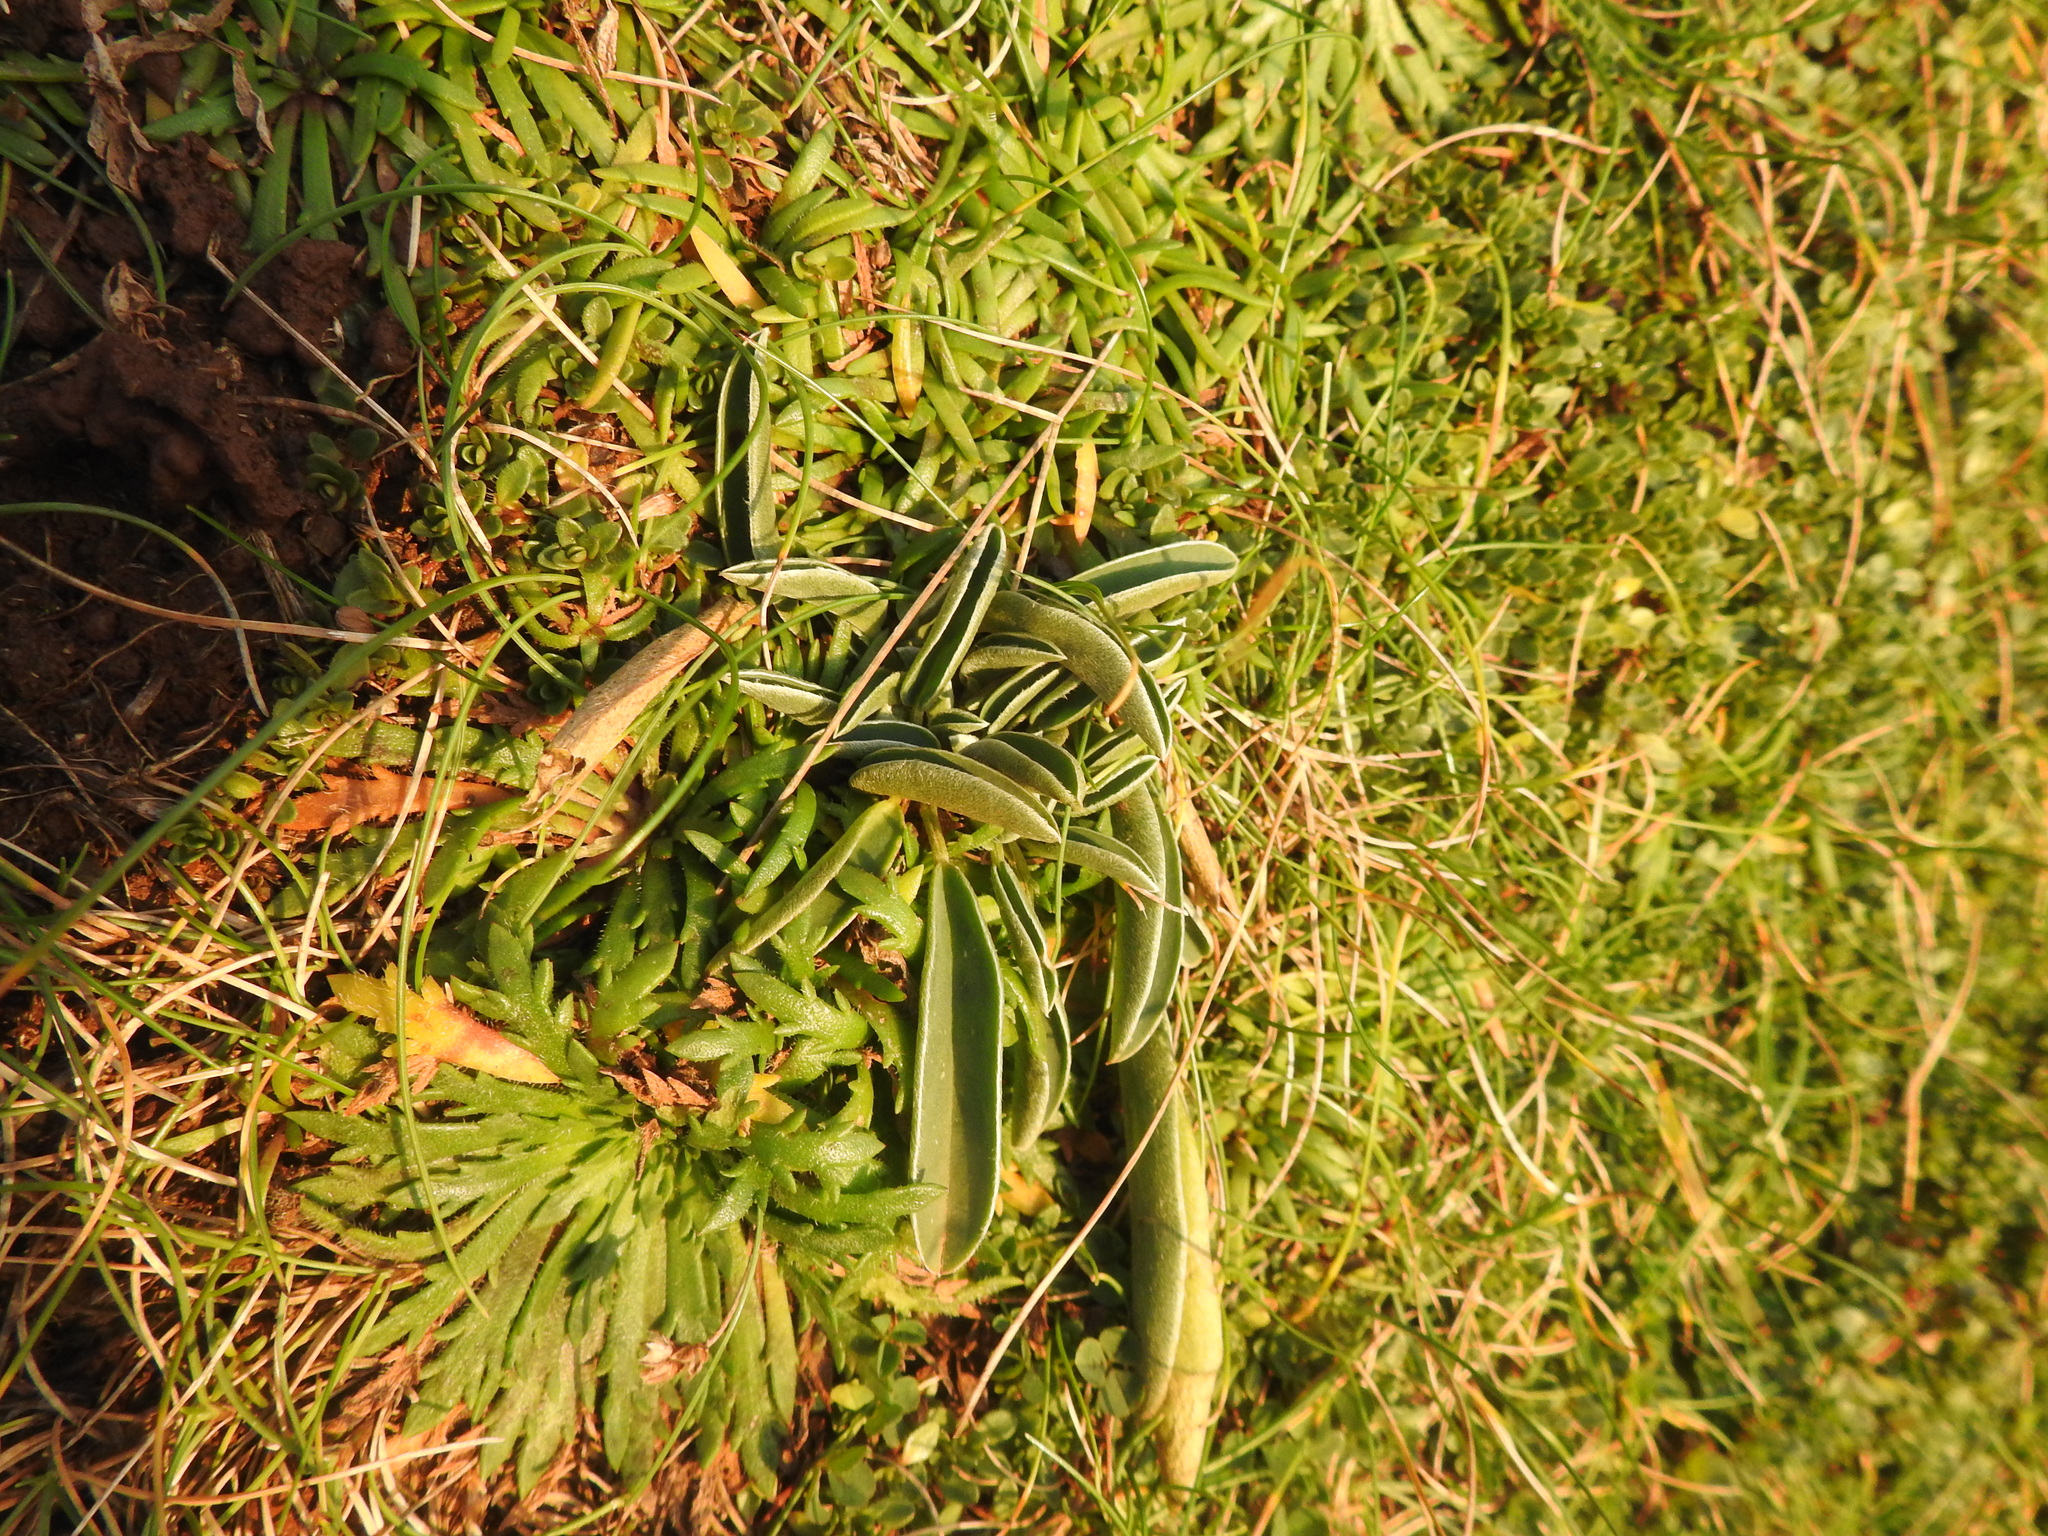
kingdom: Plantae
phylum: Tracheophyta
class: Magnoliopsida
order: Lamiales
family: Plantaginaceae
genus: Plantago
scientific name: Plantago coronopus
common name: Buck's-horn plantain
